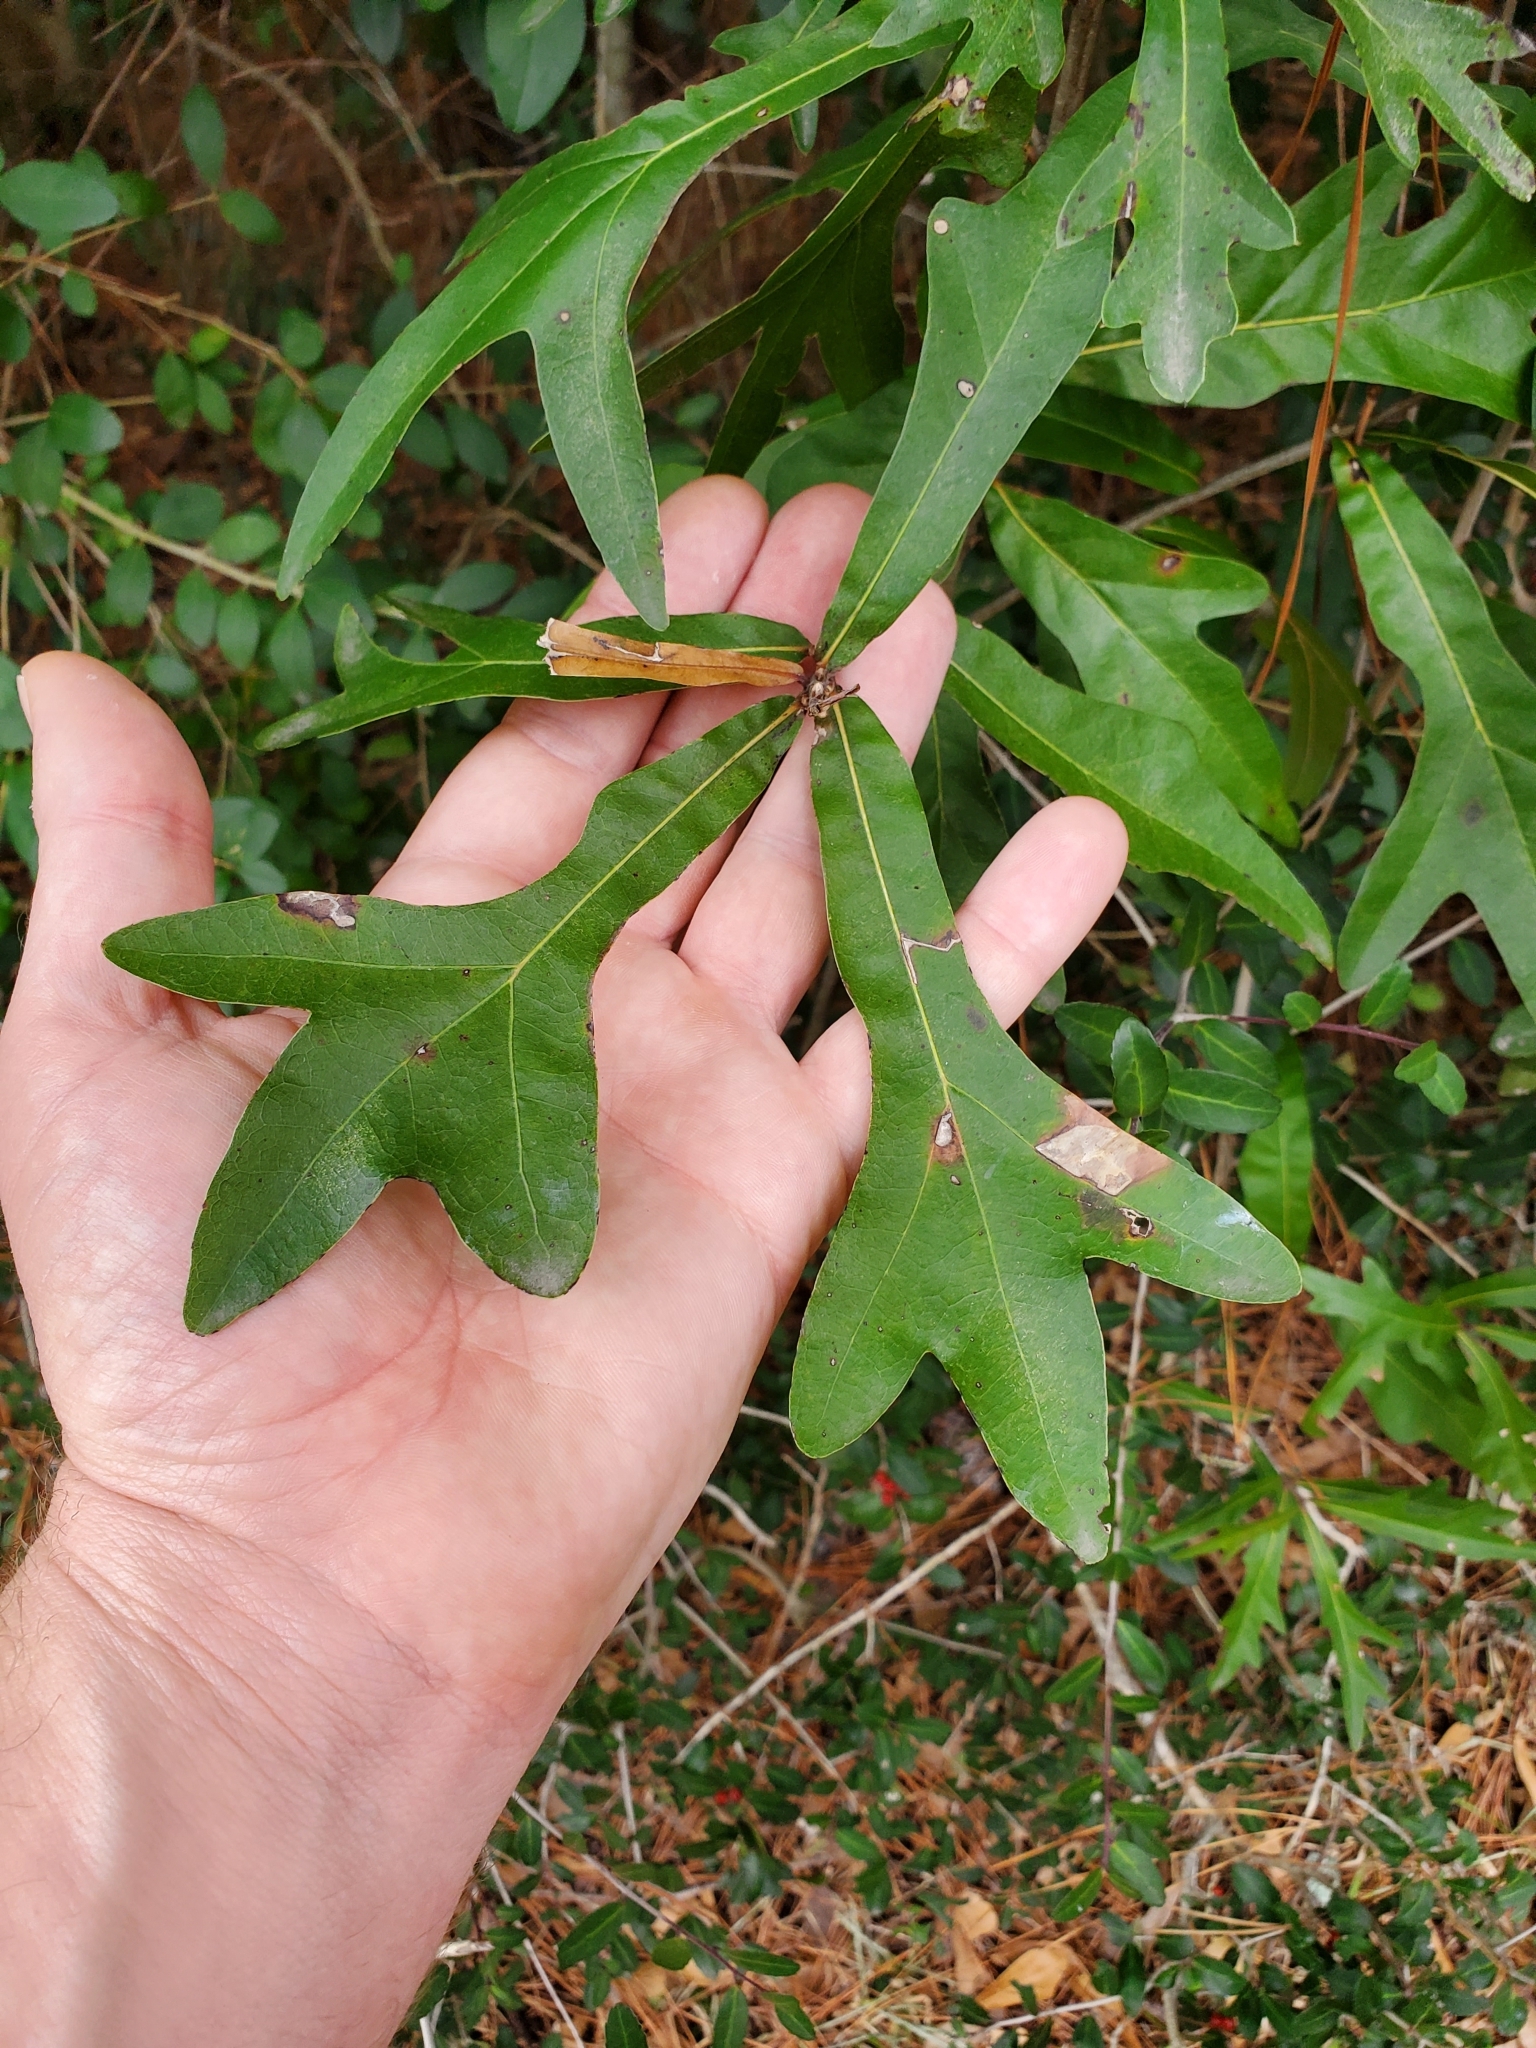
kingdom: Plantae
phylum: Tracheophyta
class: Magnoliopsida
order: Fagales
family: Fagaceae
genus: Quercus
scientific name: Quercus nigra
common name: Water oak
